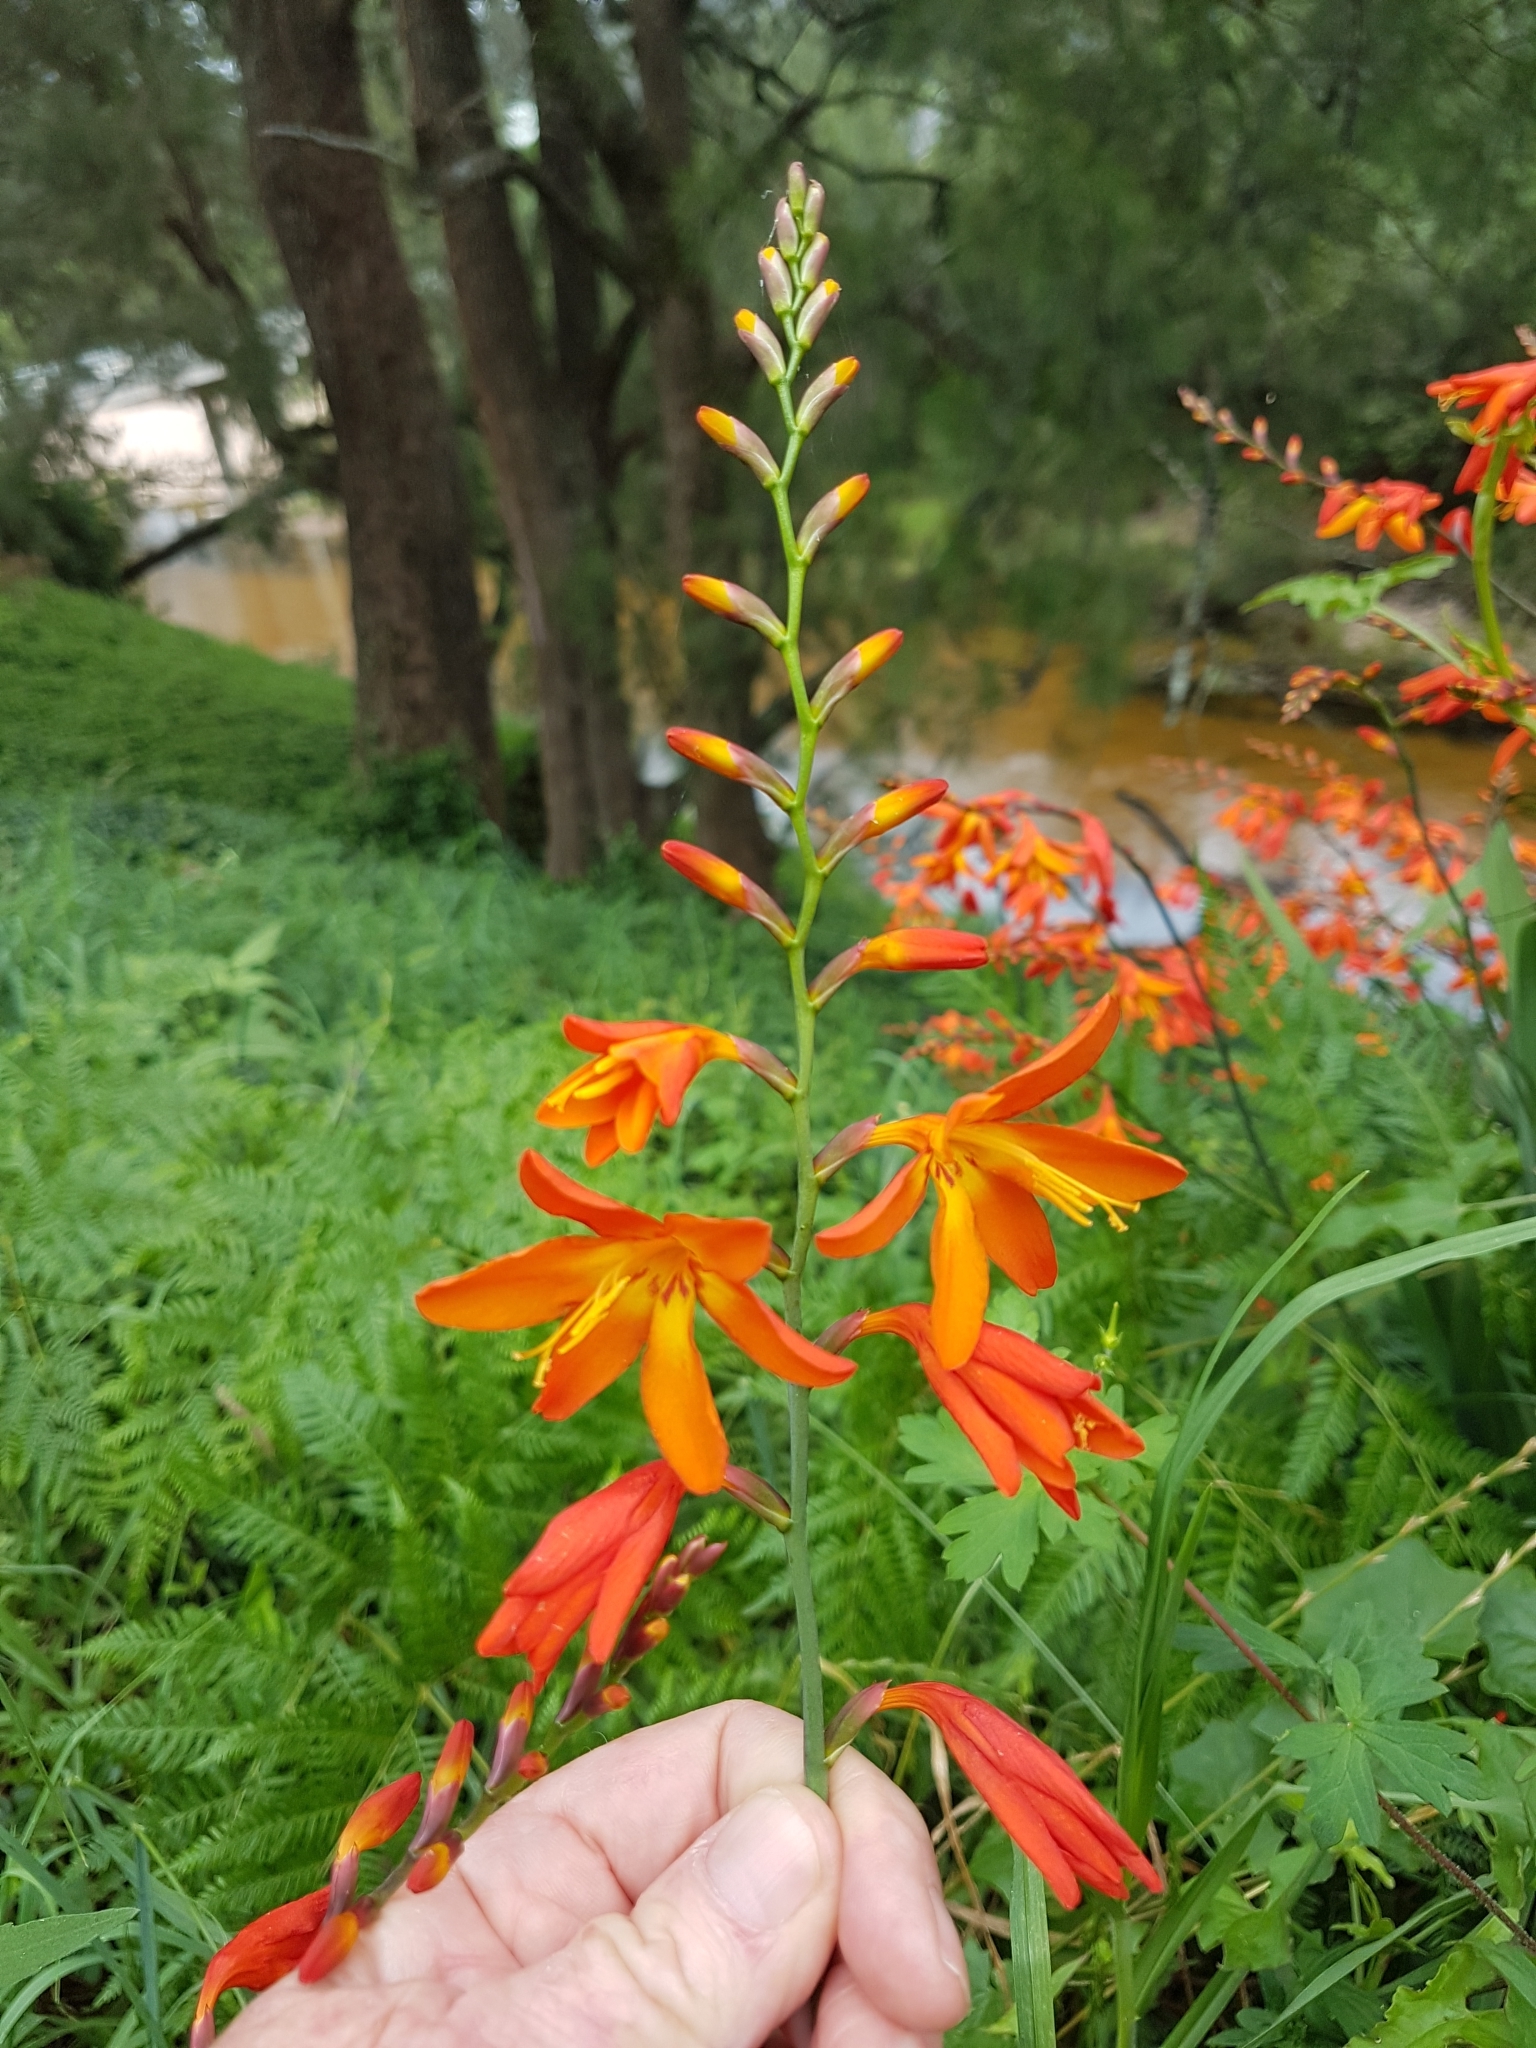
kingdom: Plantae
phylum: Tracheophyta
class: Liliopsida
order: Asparagales
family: Iridaceae
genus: Crocosmia
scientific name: Crocosmia crocosmiiflora
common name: Montbretia
